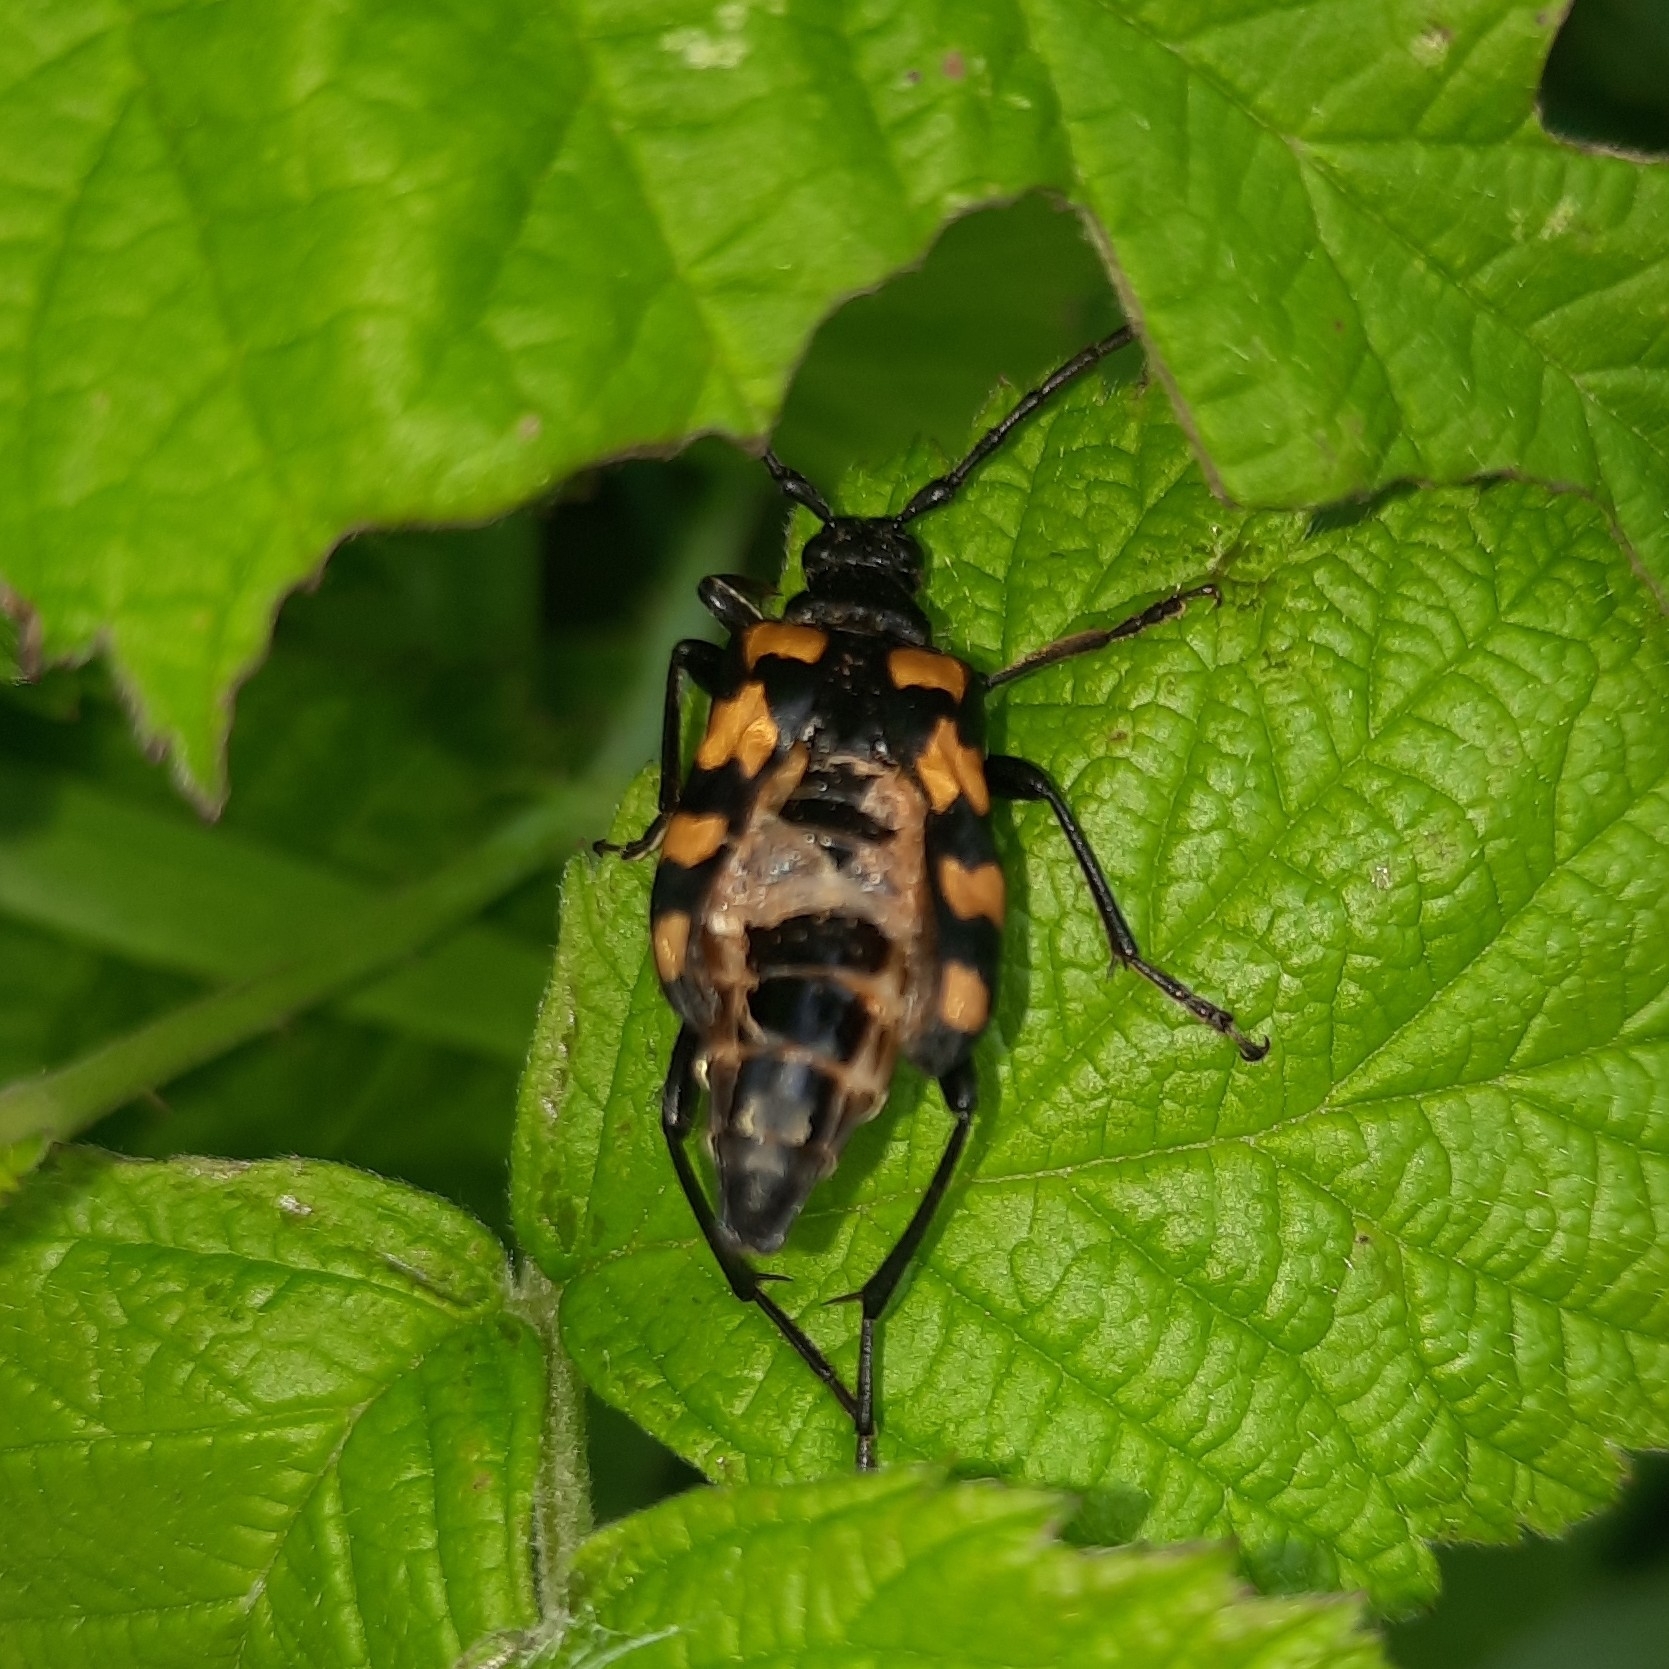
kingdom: Animalia
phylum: Arthropoda
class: Insecta
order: Coleoptera
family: Cerambycidae
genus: Leptura
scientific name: Leptura quadrifasciata
